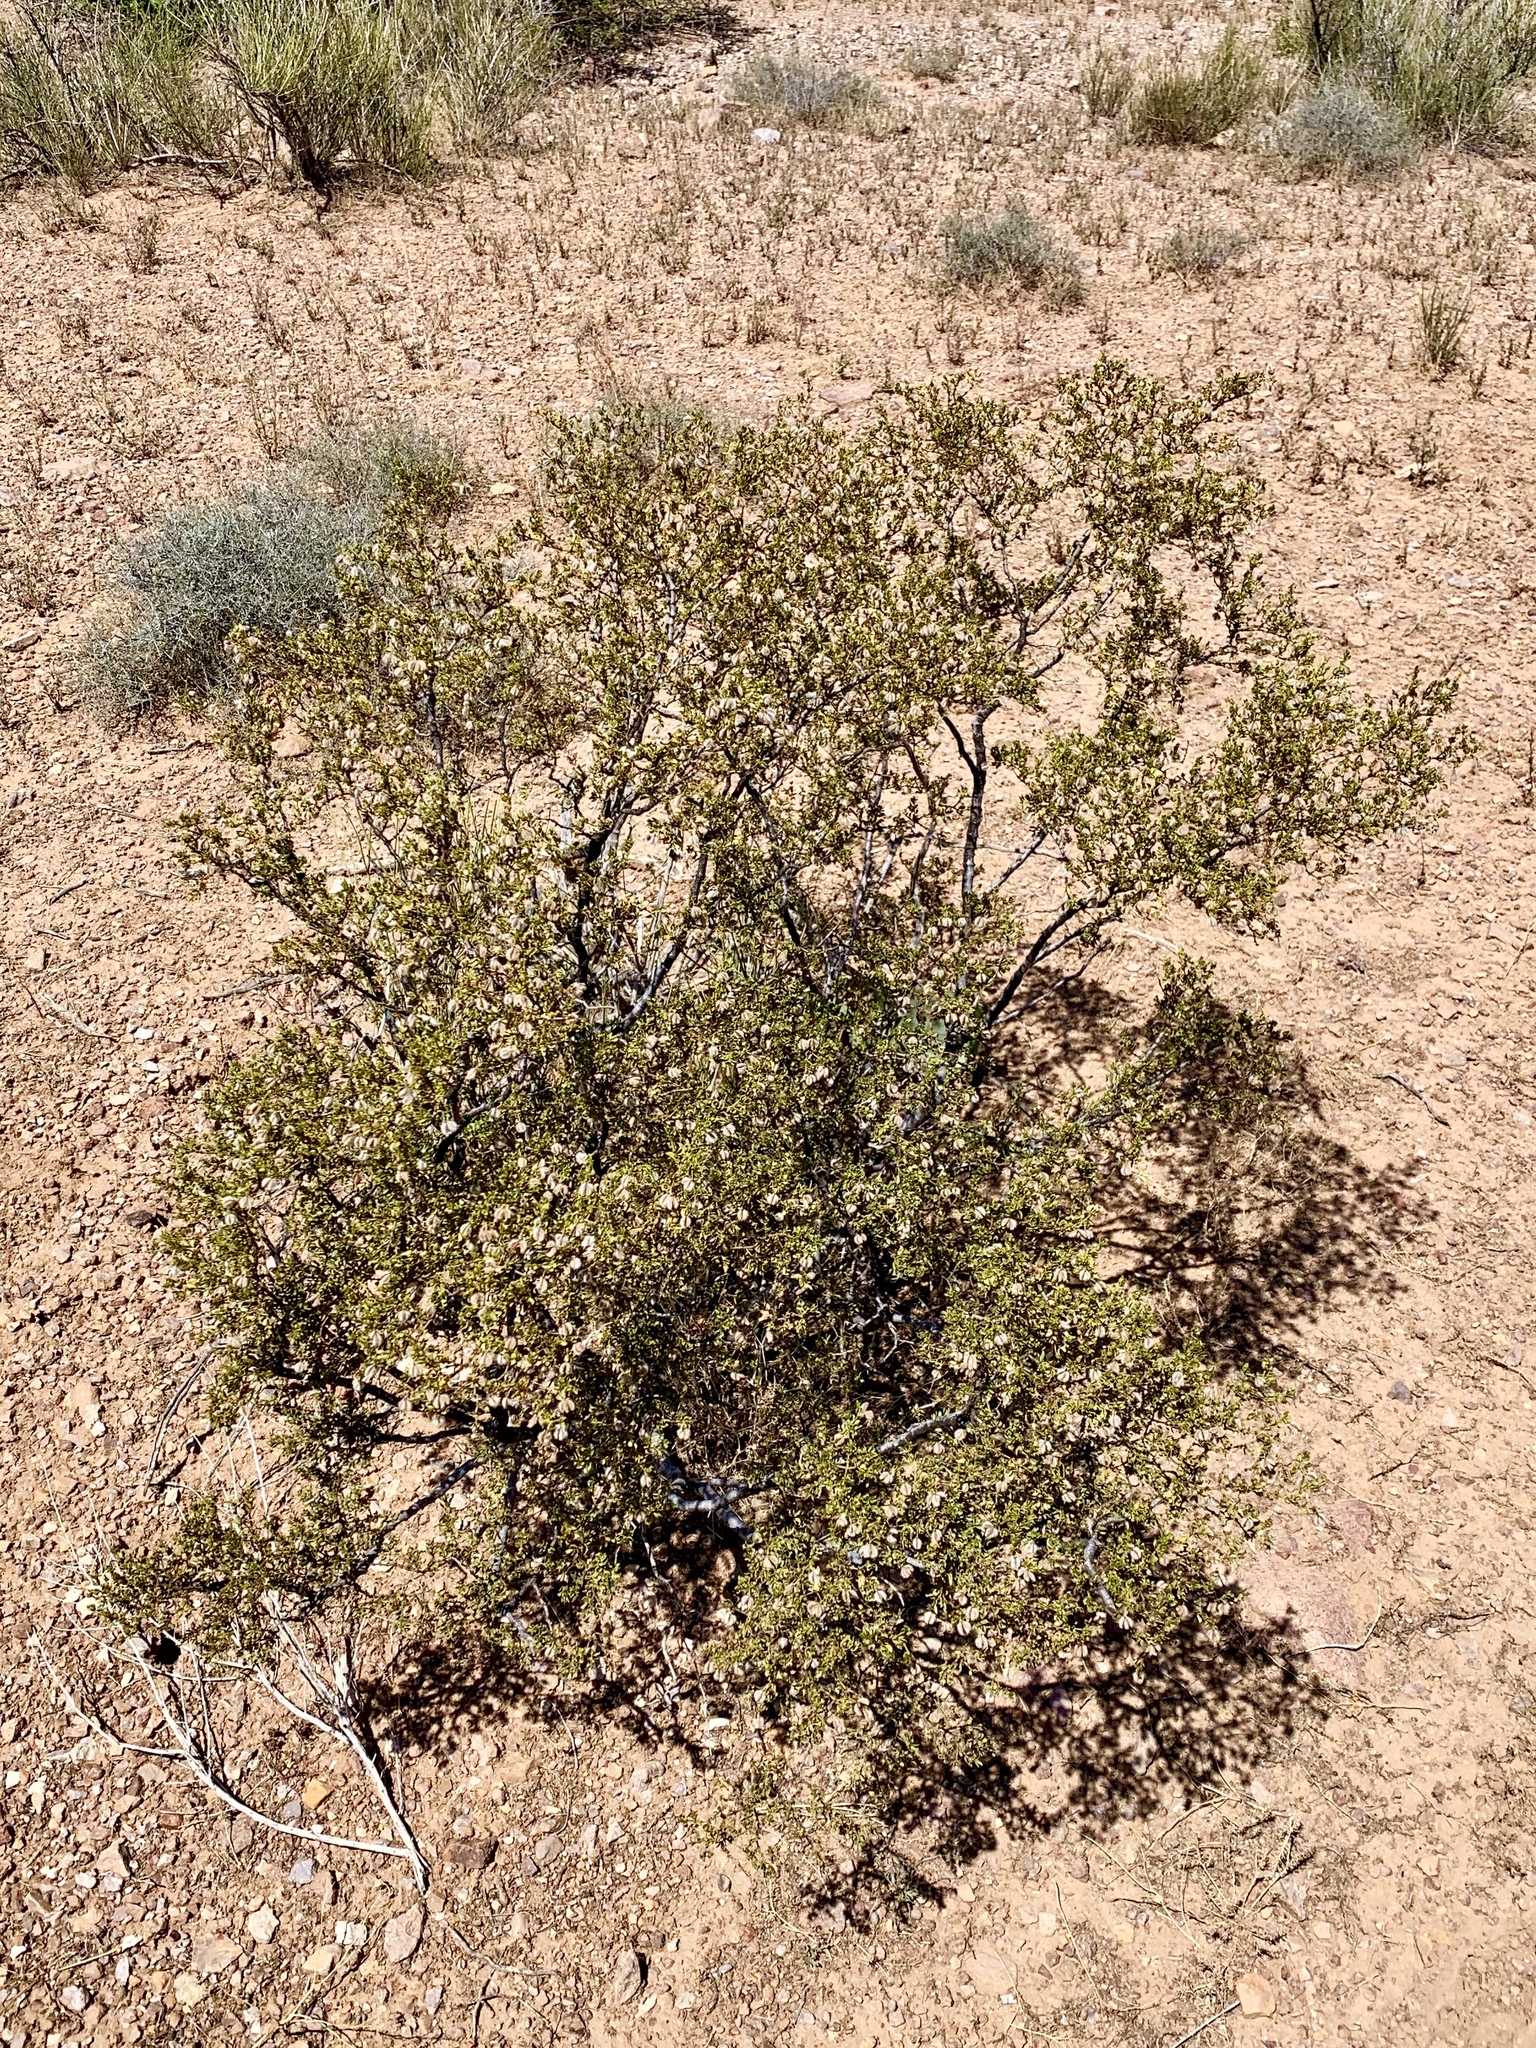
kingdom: Plantae
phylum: Tracheophyta
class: Magnoliopsida
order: Zygophyllales
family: Zygophyllaceae
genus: Larrea
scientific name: Larrea tridentata
